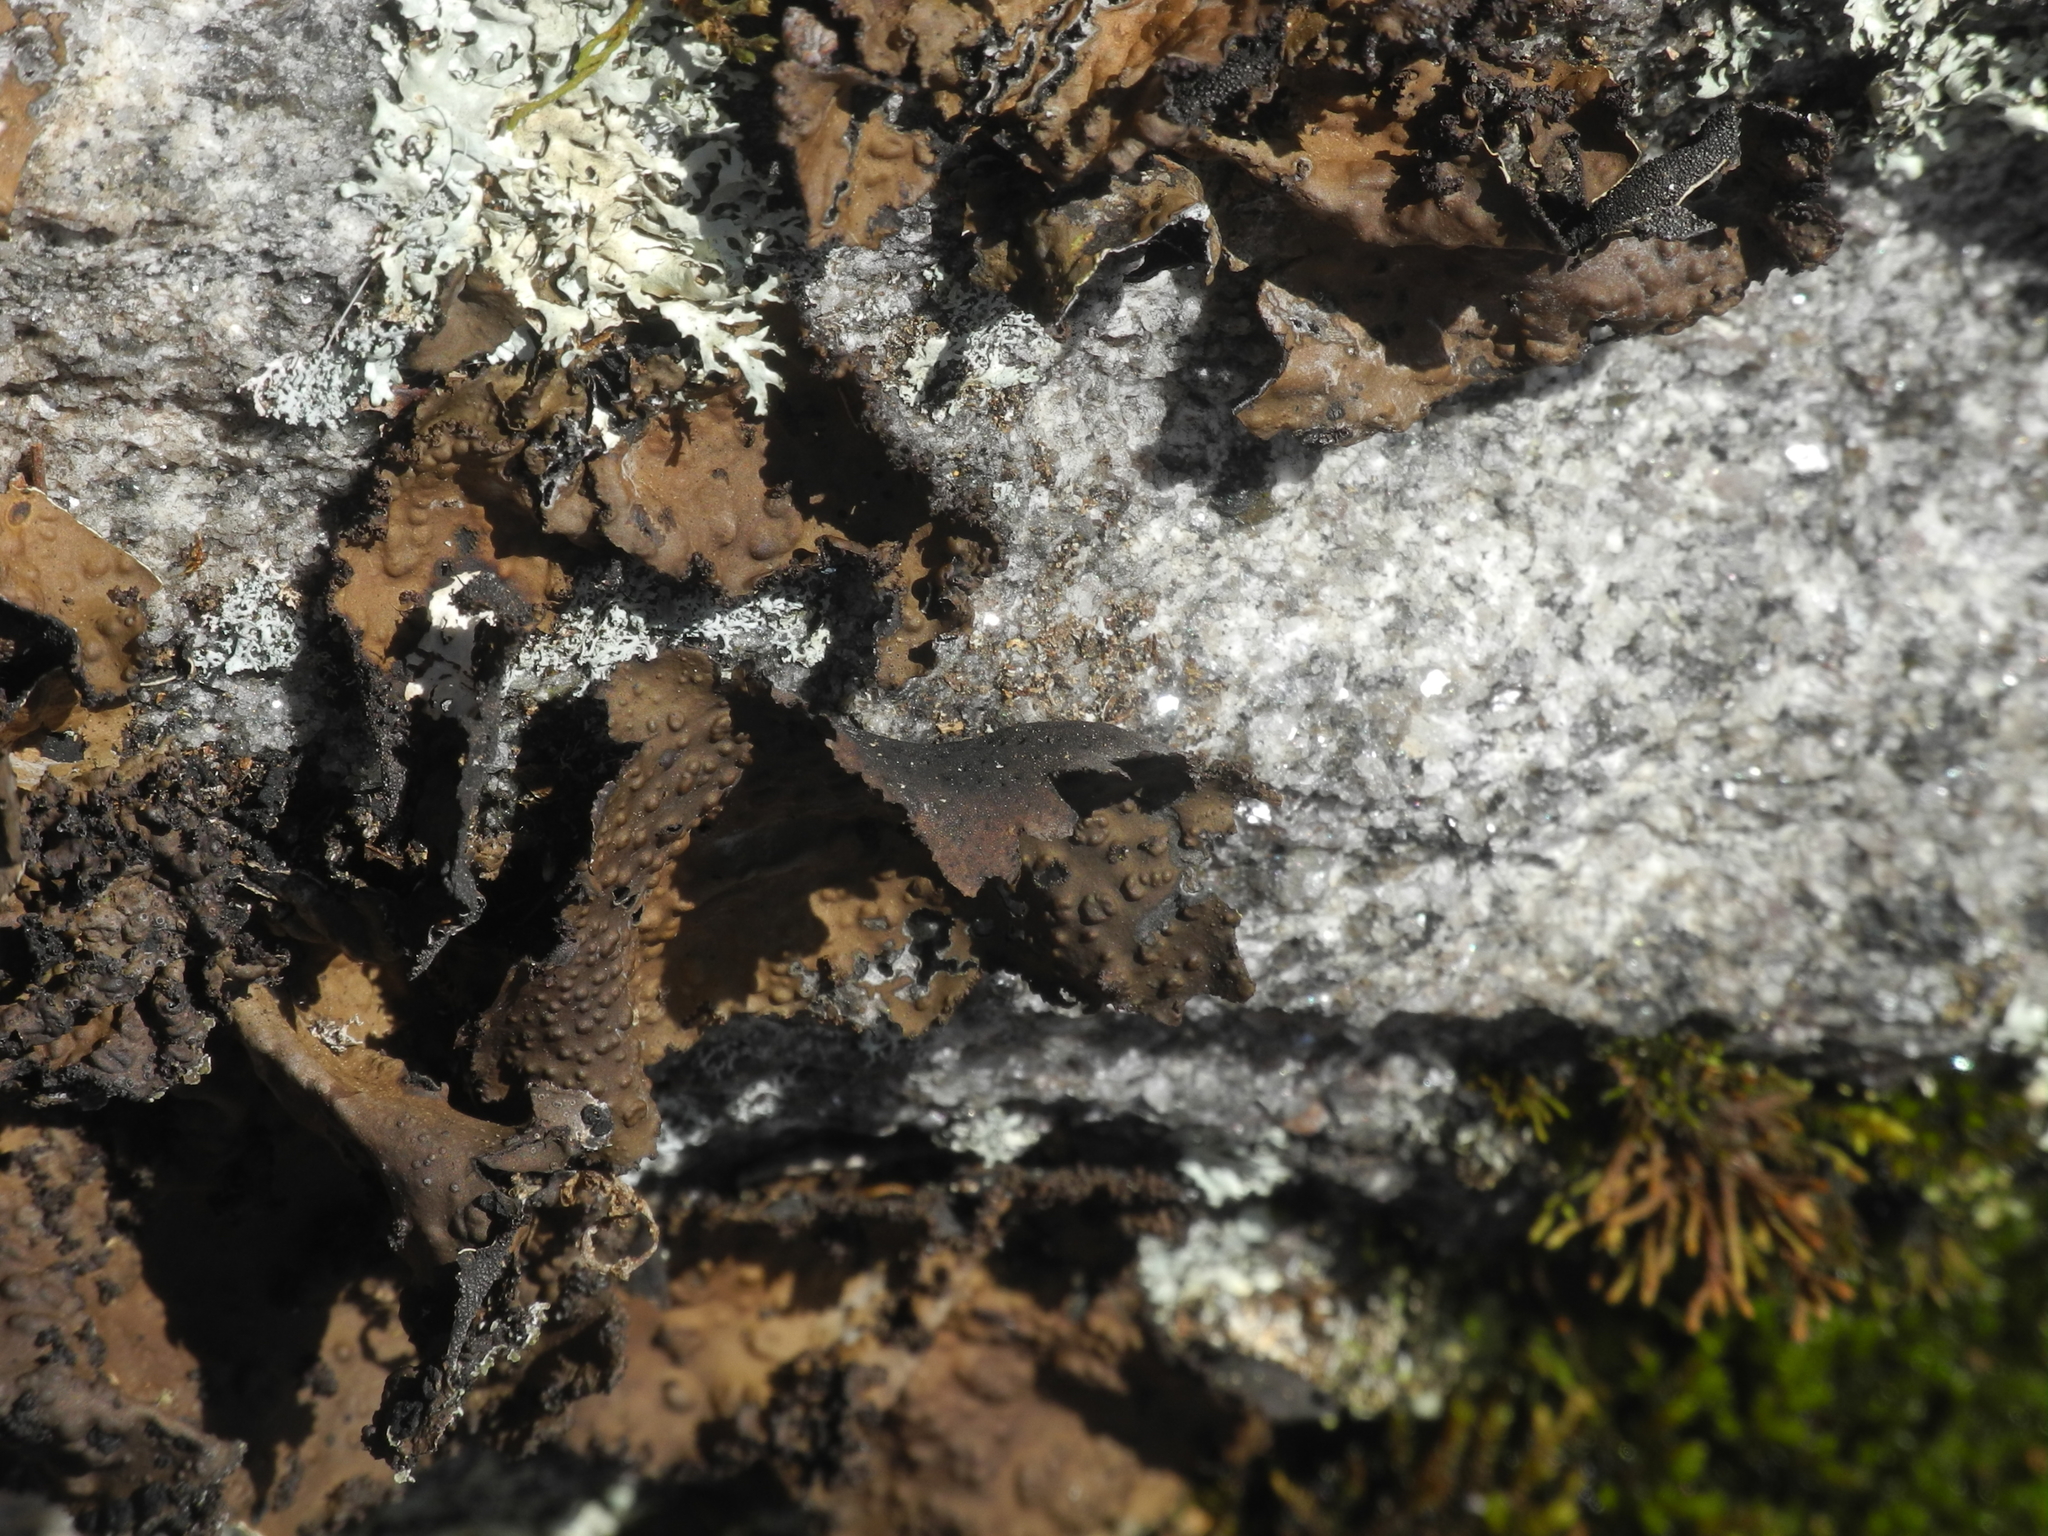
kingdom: Fungi
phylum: Ascomycota
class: Lecanoromycetes
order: Umbilicariales
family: Umbilicariaceae
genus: Lasallia
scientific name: Lasallia pensylvanica
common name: Blackened toadskin lichen
